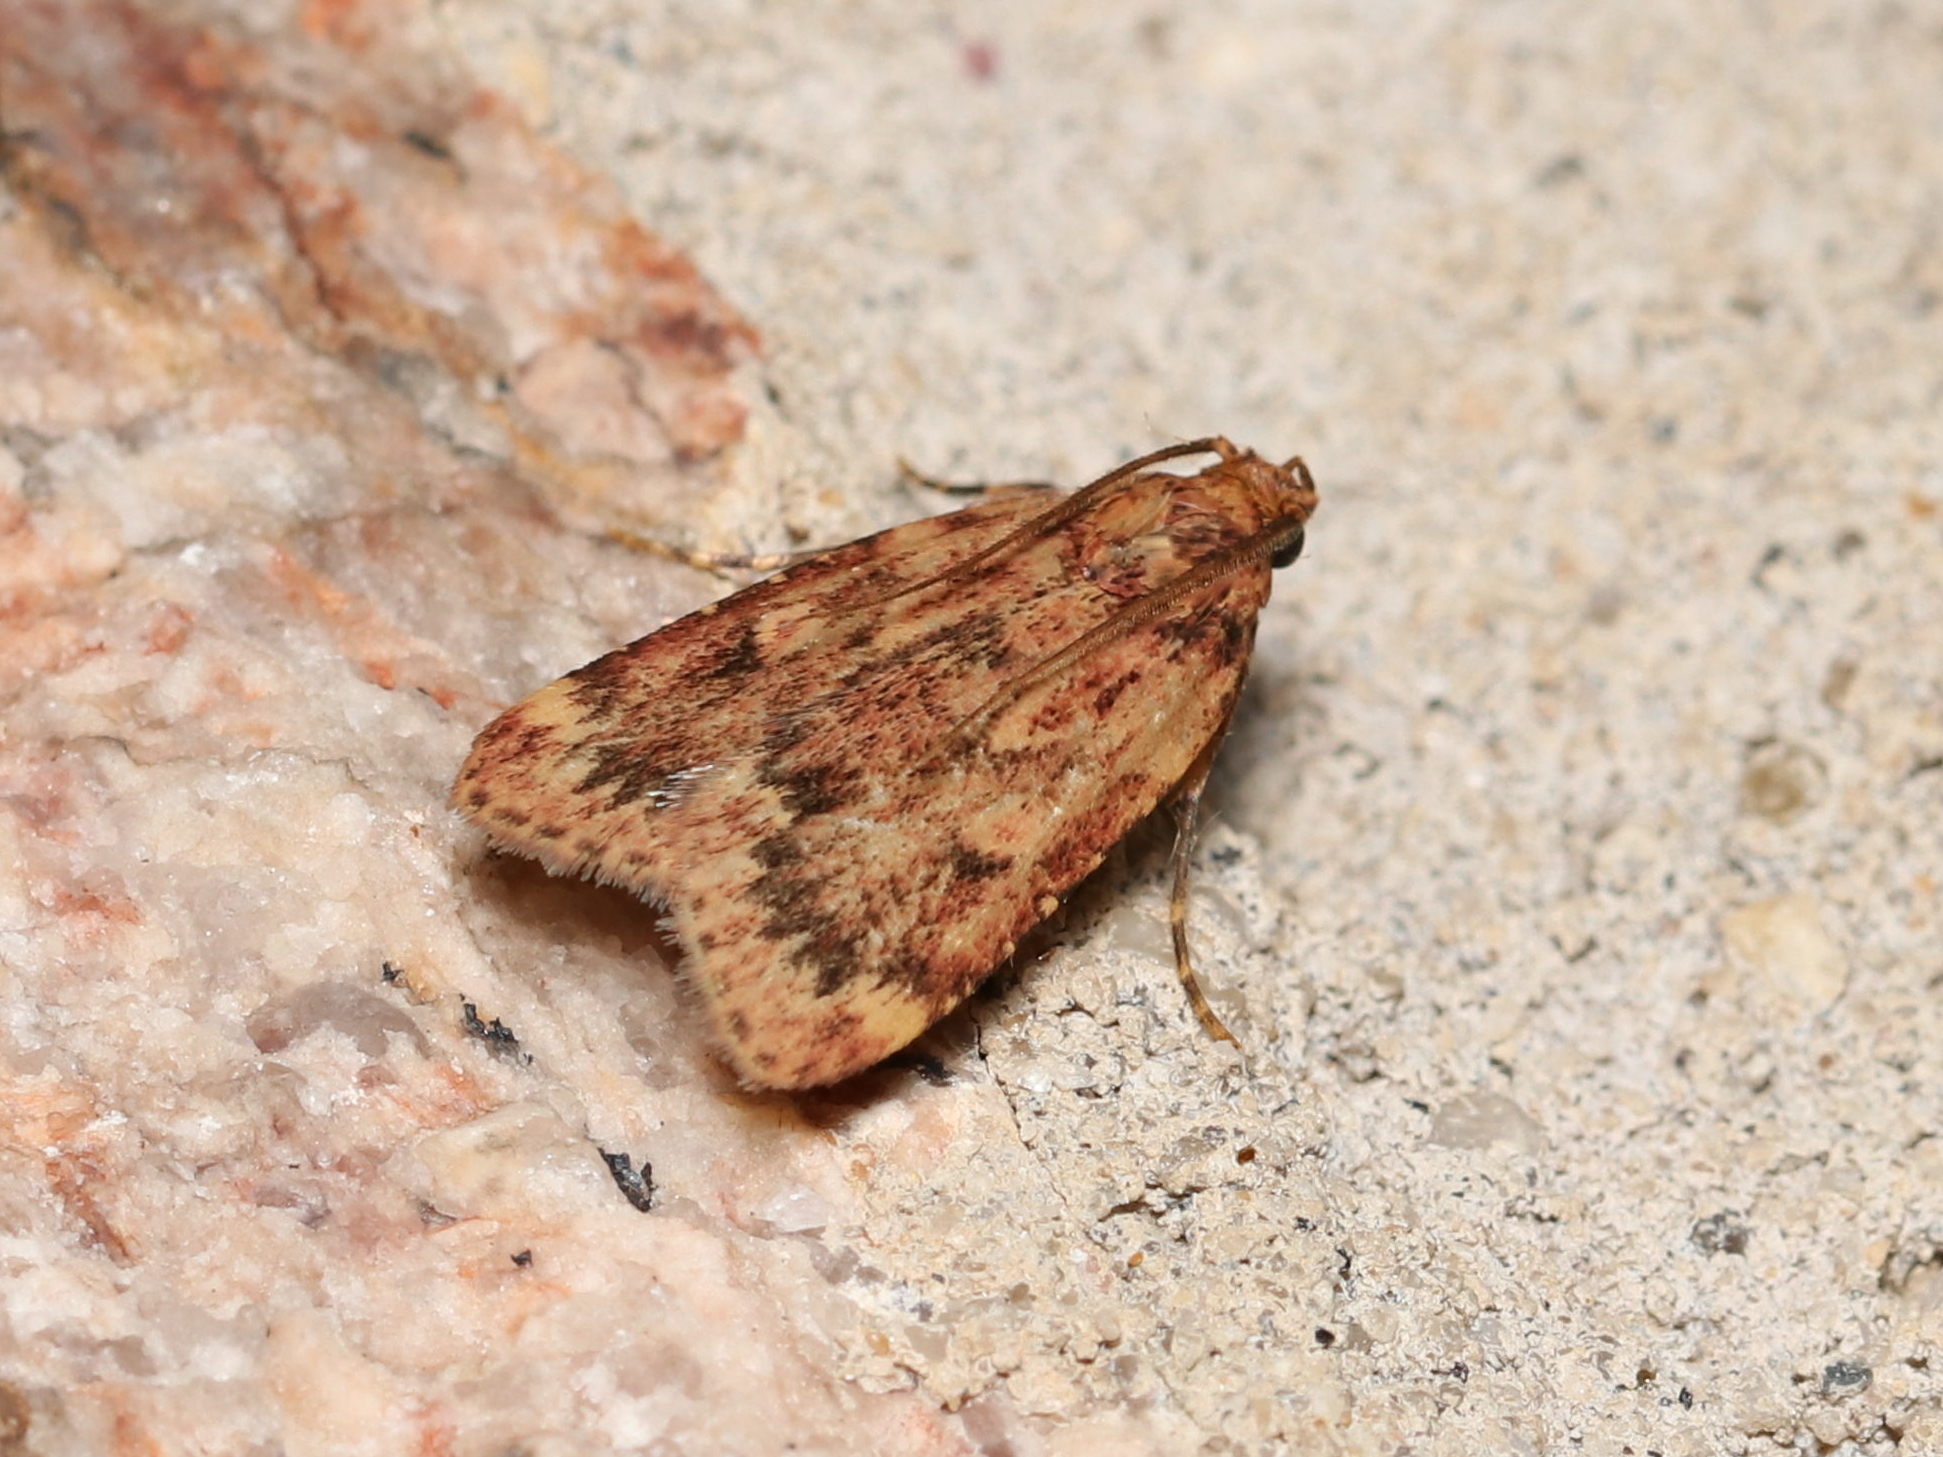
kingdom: Animalia
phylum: Arthropoda
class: Insecta
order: Lepidoptera
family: Pyralidae
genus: Aglossa
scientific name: Aglossa cuprina
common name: Grease moth
